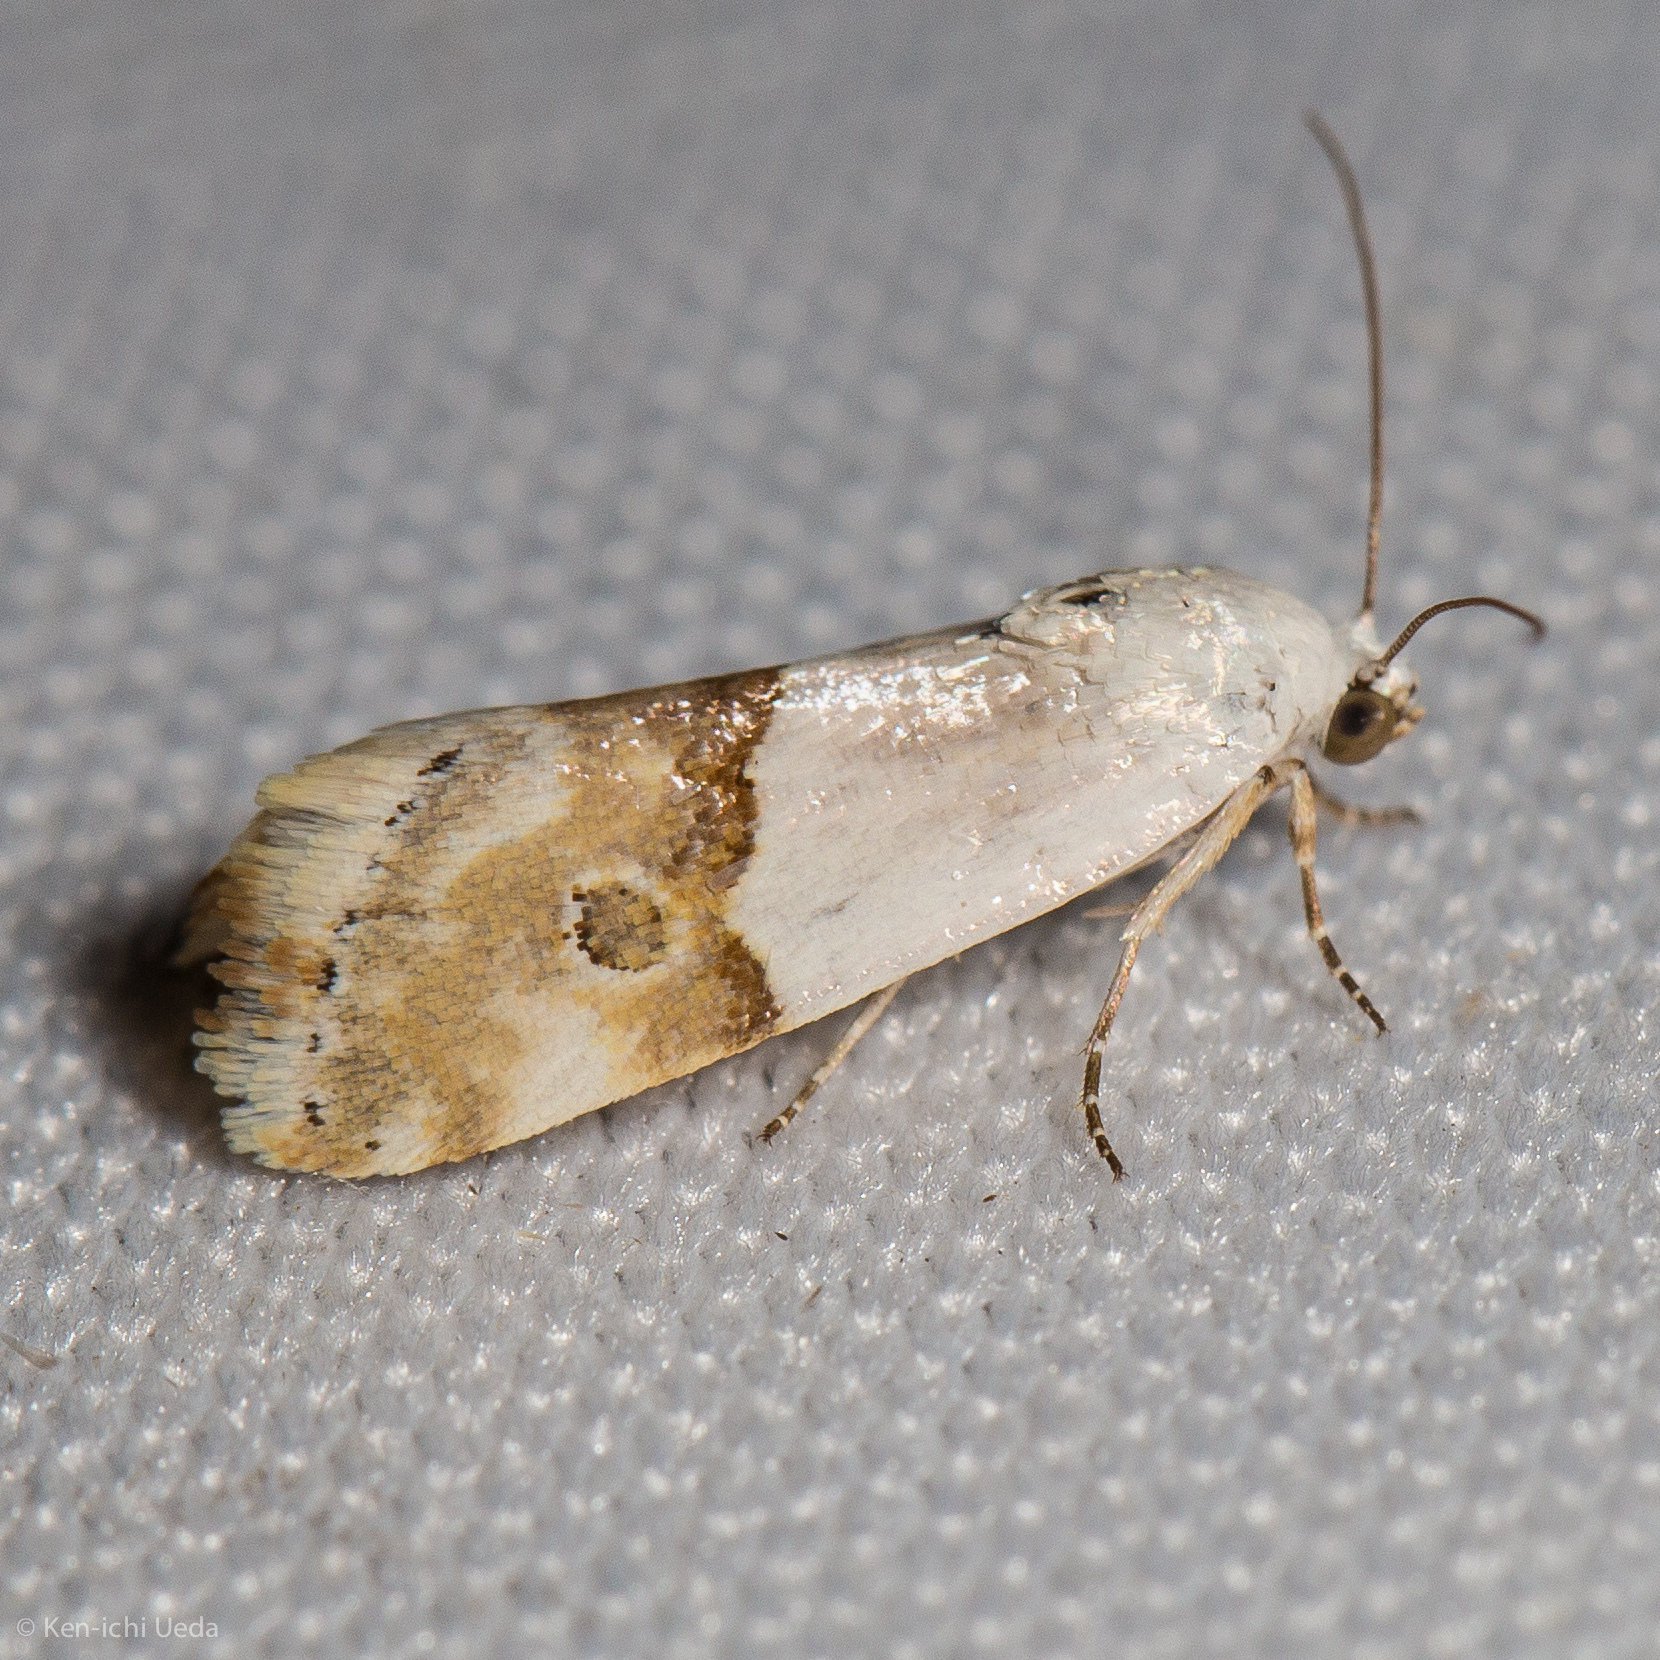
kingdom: Animalia
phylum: Arthropoda
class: Insecta
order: Lepidoptera
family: Noctuidae
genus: Ponometia
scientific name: Ponometia elegantula
